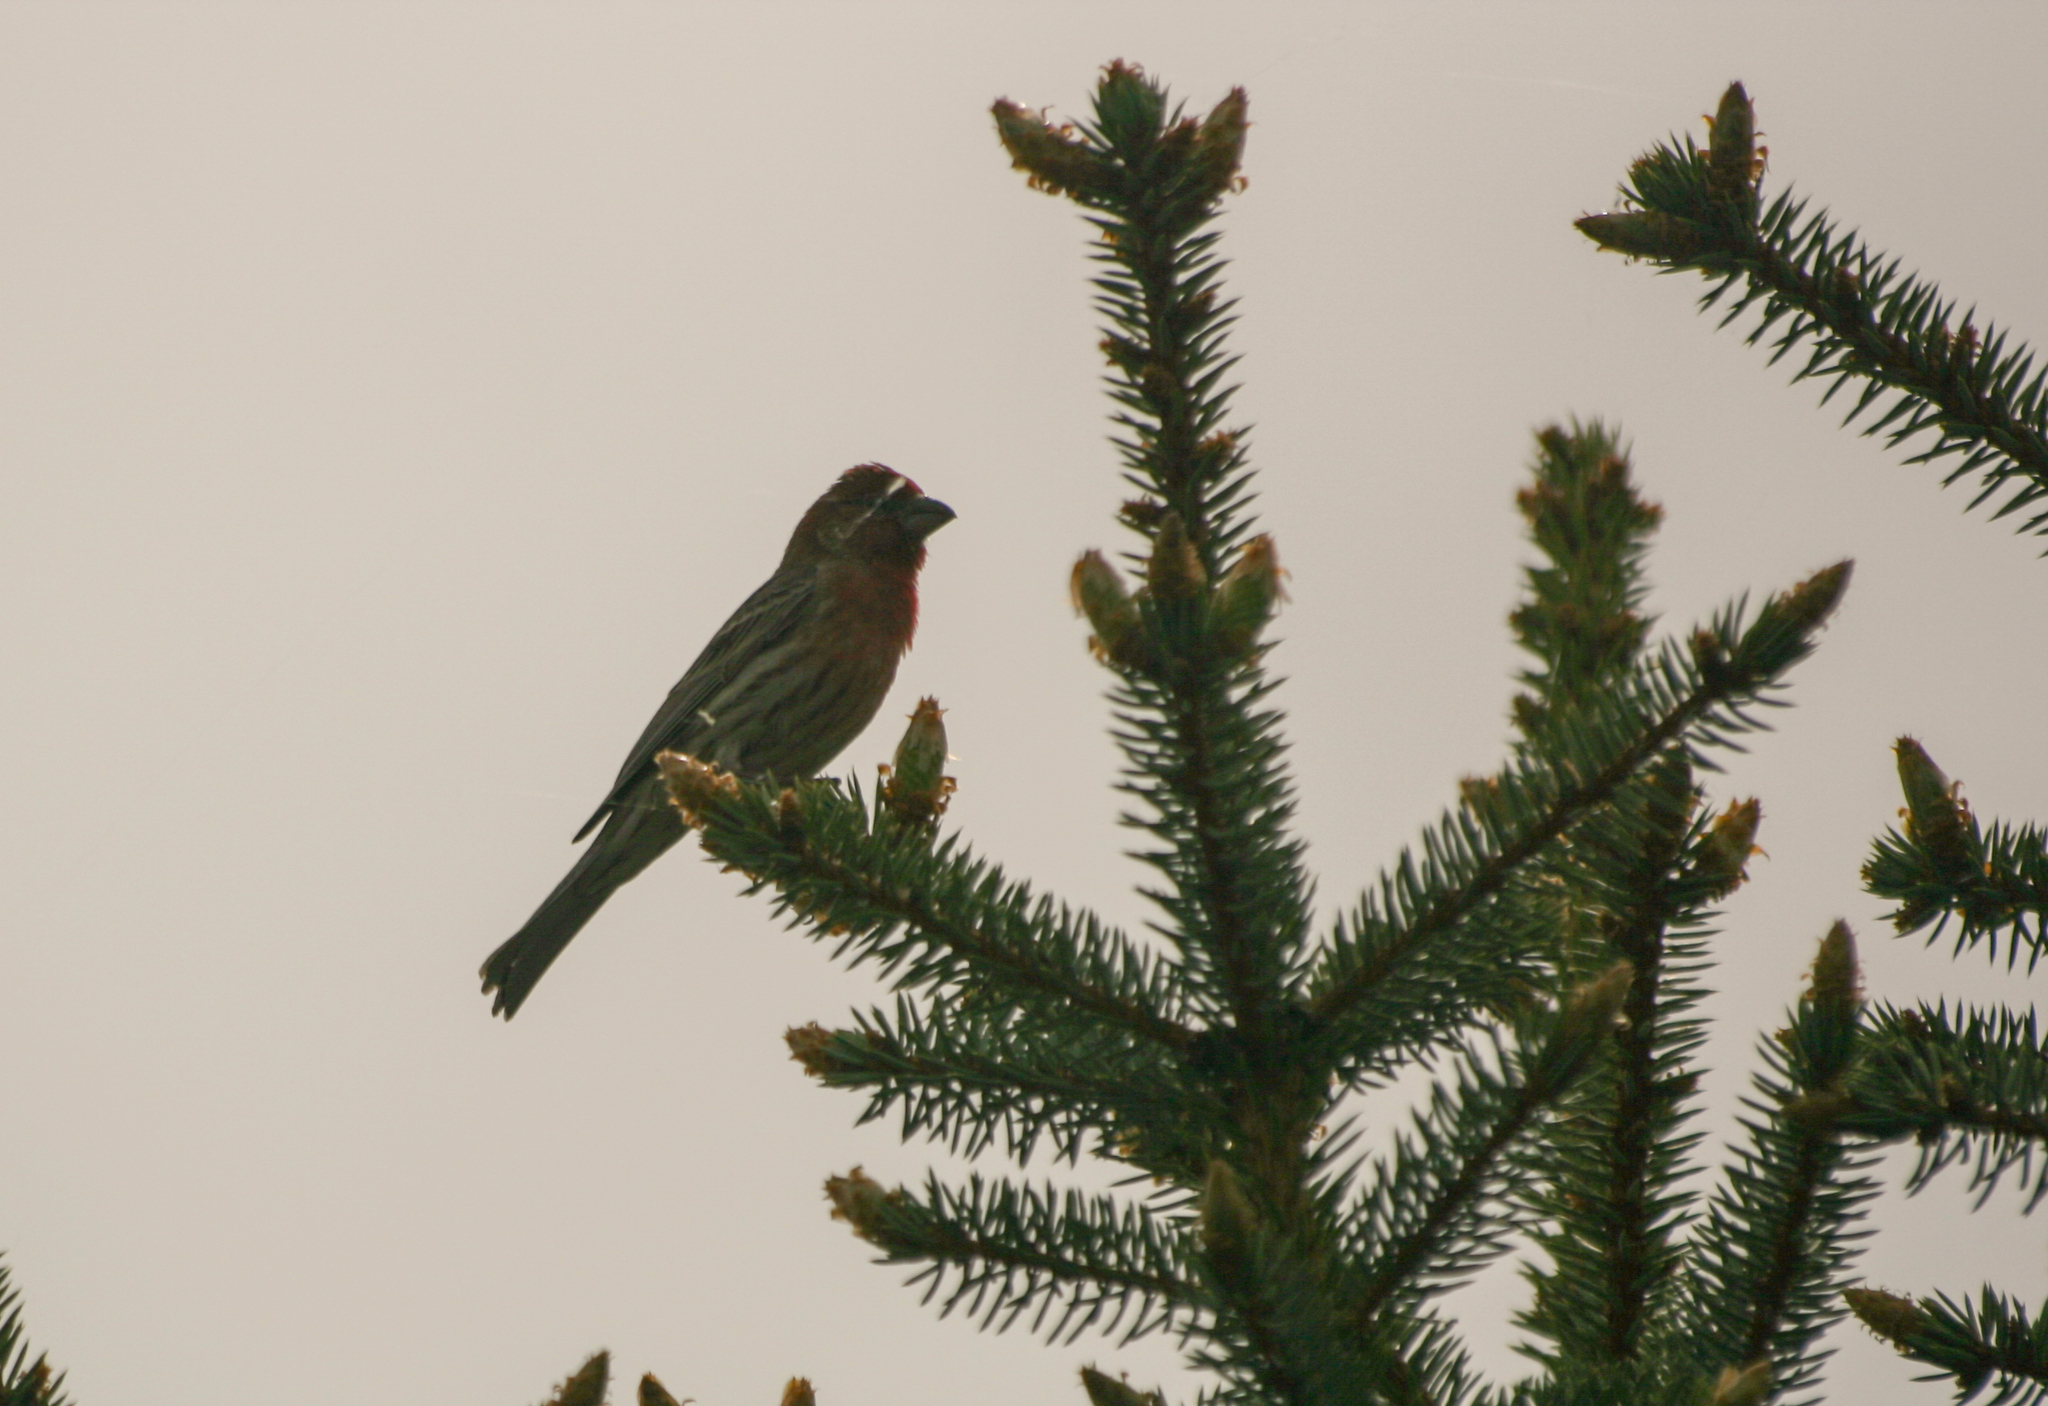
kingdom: Animalia
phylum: Chordata
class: Aves
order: Passeriformes
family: Fringillidae
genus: Haemorhous
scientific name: Haemorhous mexicanus
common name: House finch
